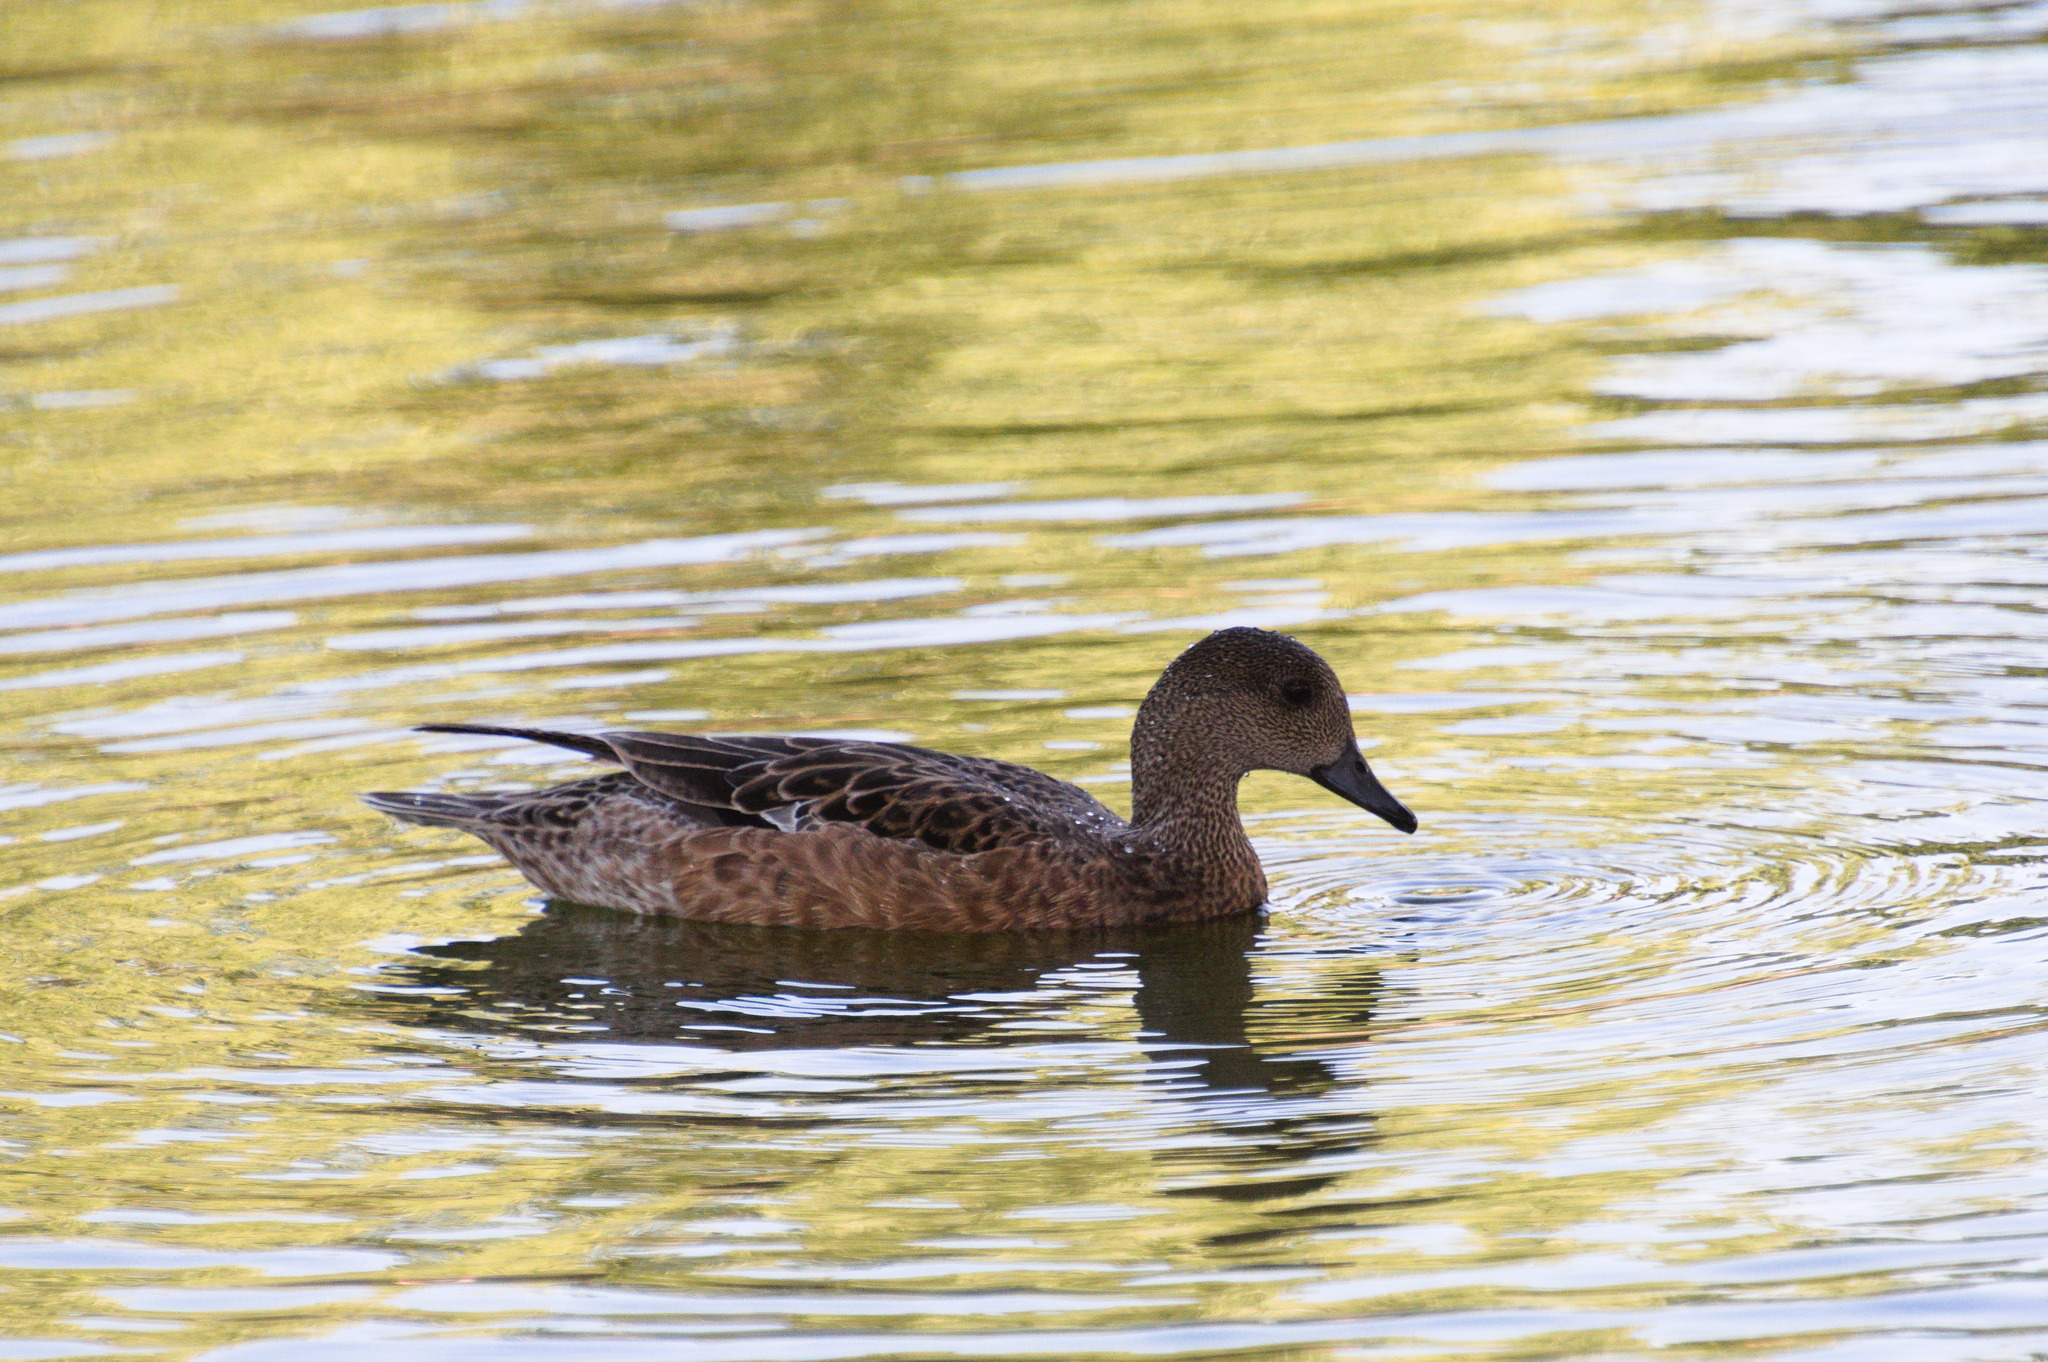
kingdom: Animalia
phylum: Chordata
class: Aves
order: Anseriformes
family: Anatidae
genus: Mareca
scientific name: Mareca americana
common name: American wigeon
